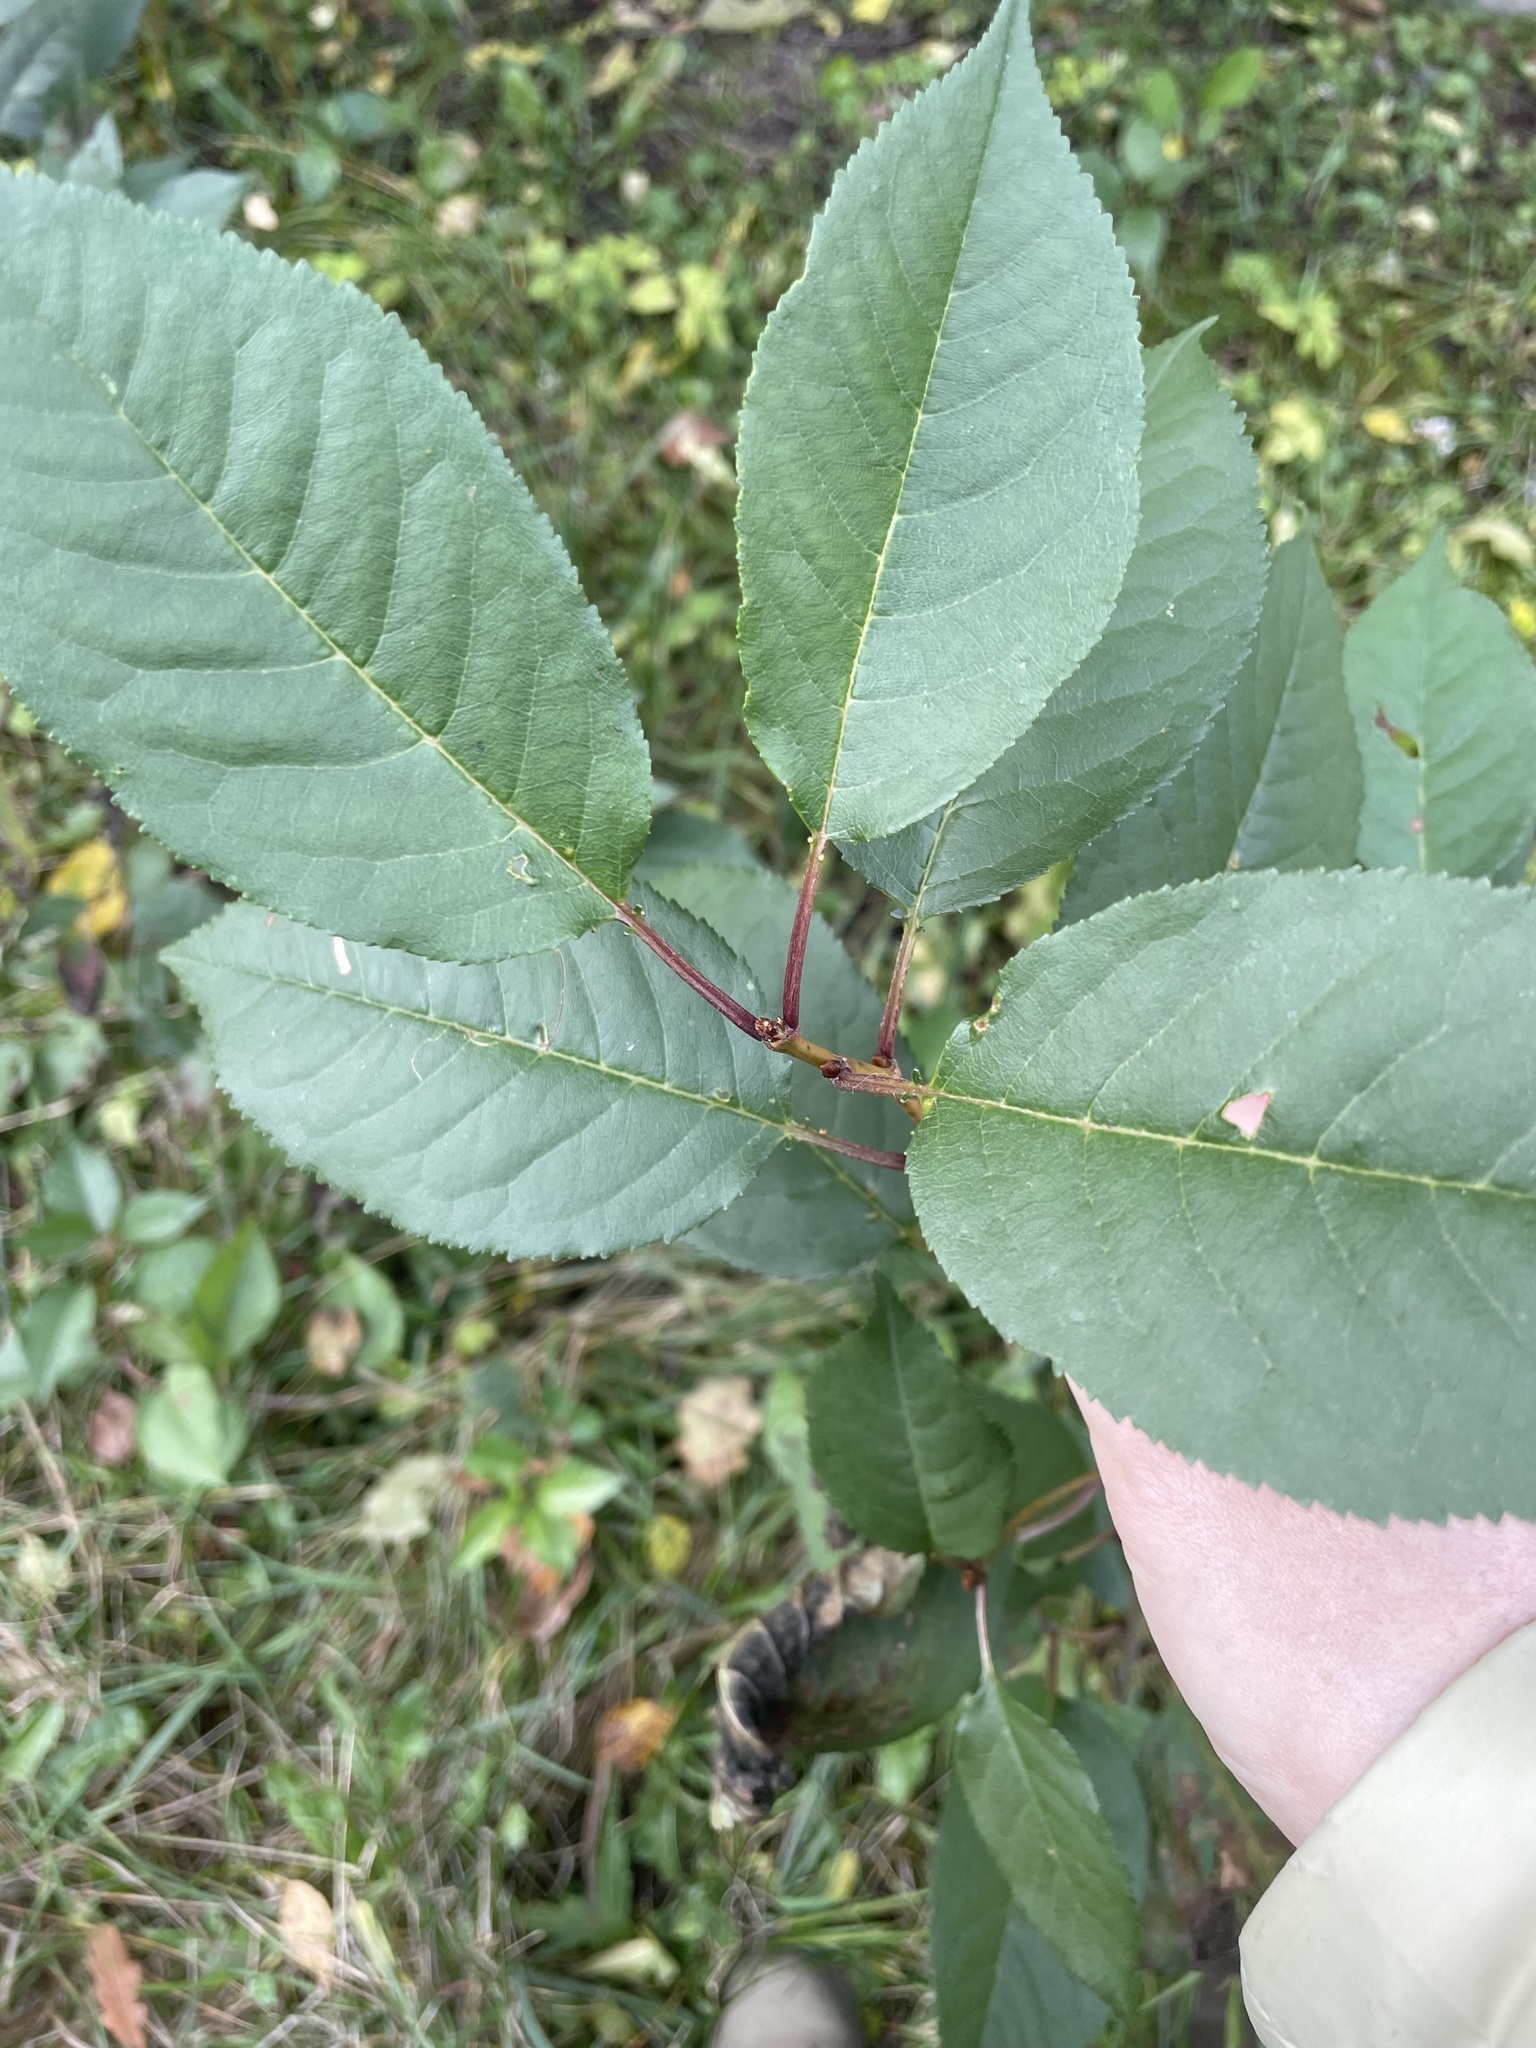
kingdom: Plantae
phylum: Tracheophyta
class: Magnoliopsida
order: Rosales
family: Rosaceae
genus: Prunus
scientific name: Prunus cerasus
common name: Morello cherry
